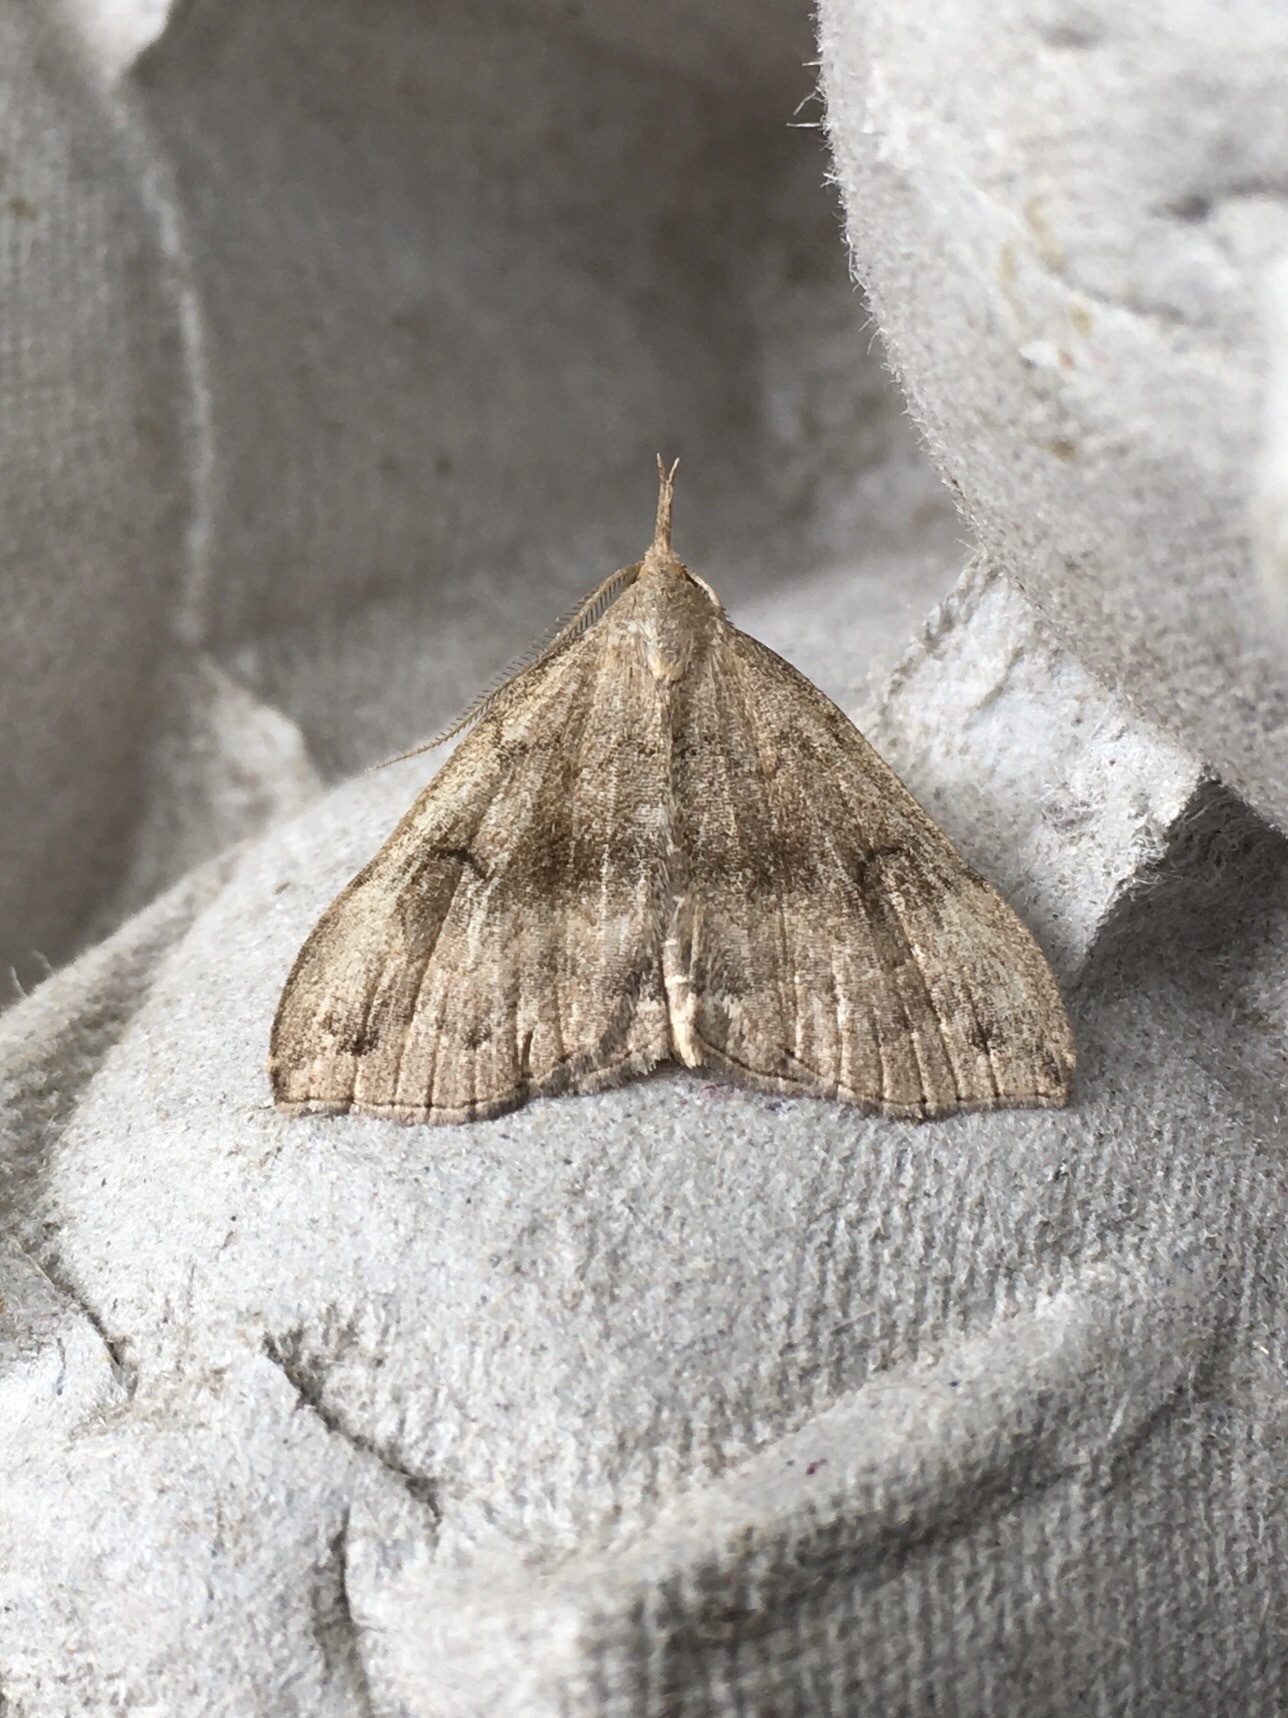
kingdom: Animalia
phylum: Arthropoda
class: Insecta
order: Lepidoptera
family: Erebidae
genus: Phalaenostola
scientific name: Phalaenostola eumelusalis
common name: Dark phalaenostola moth
